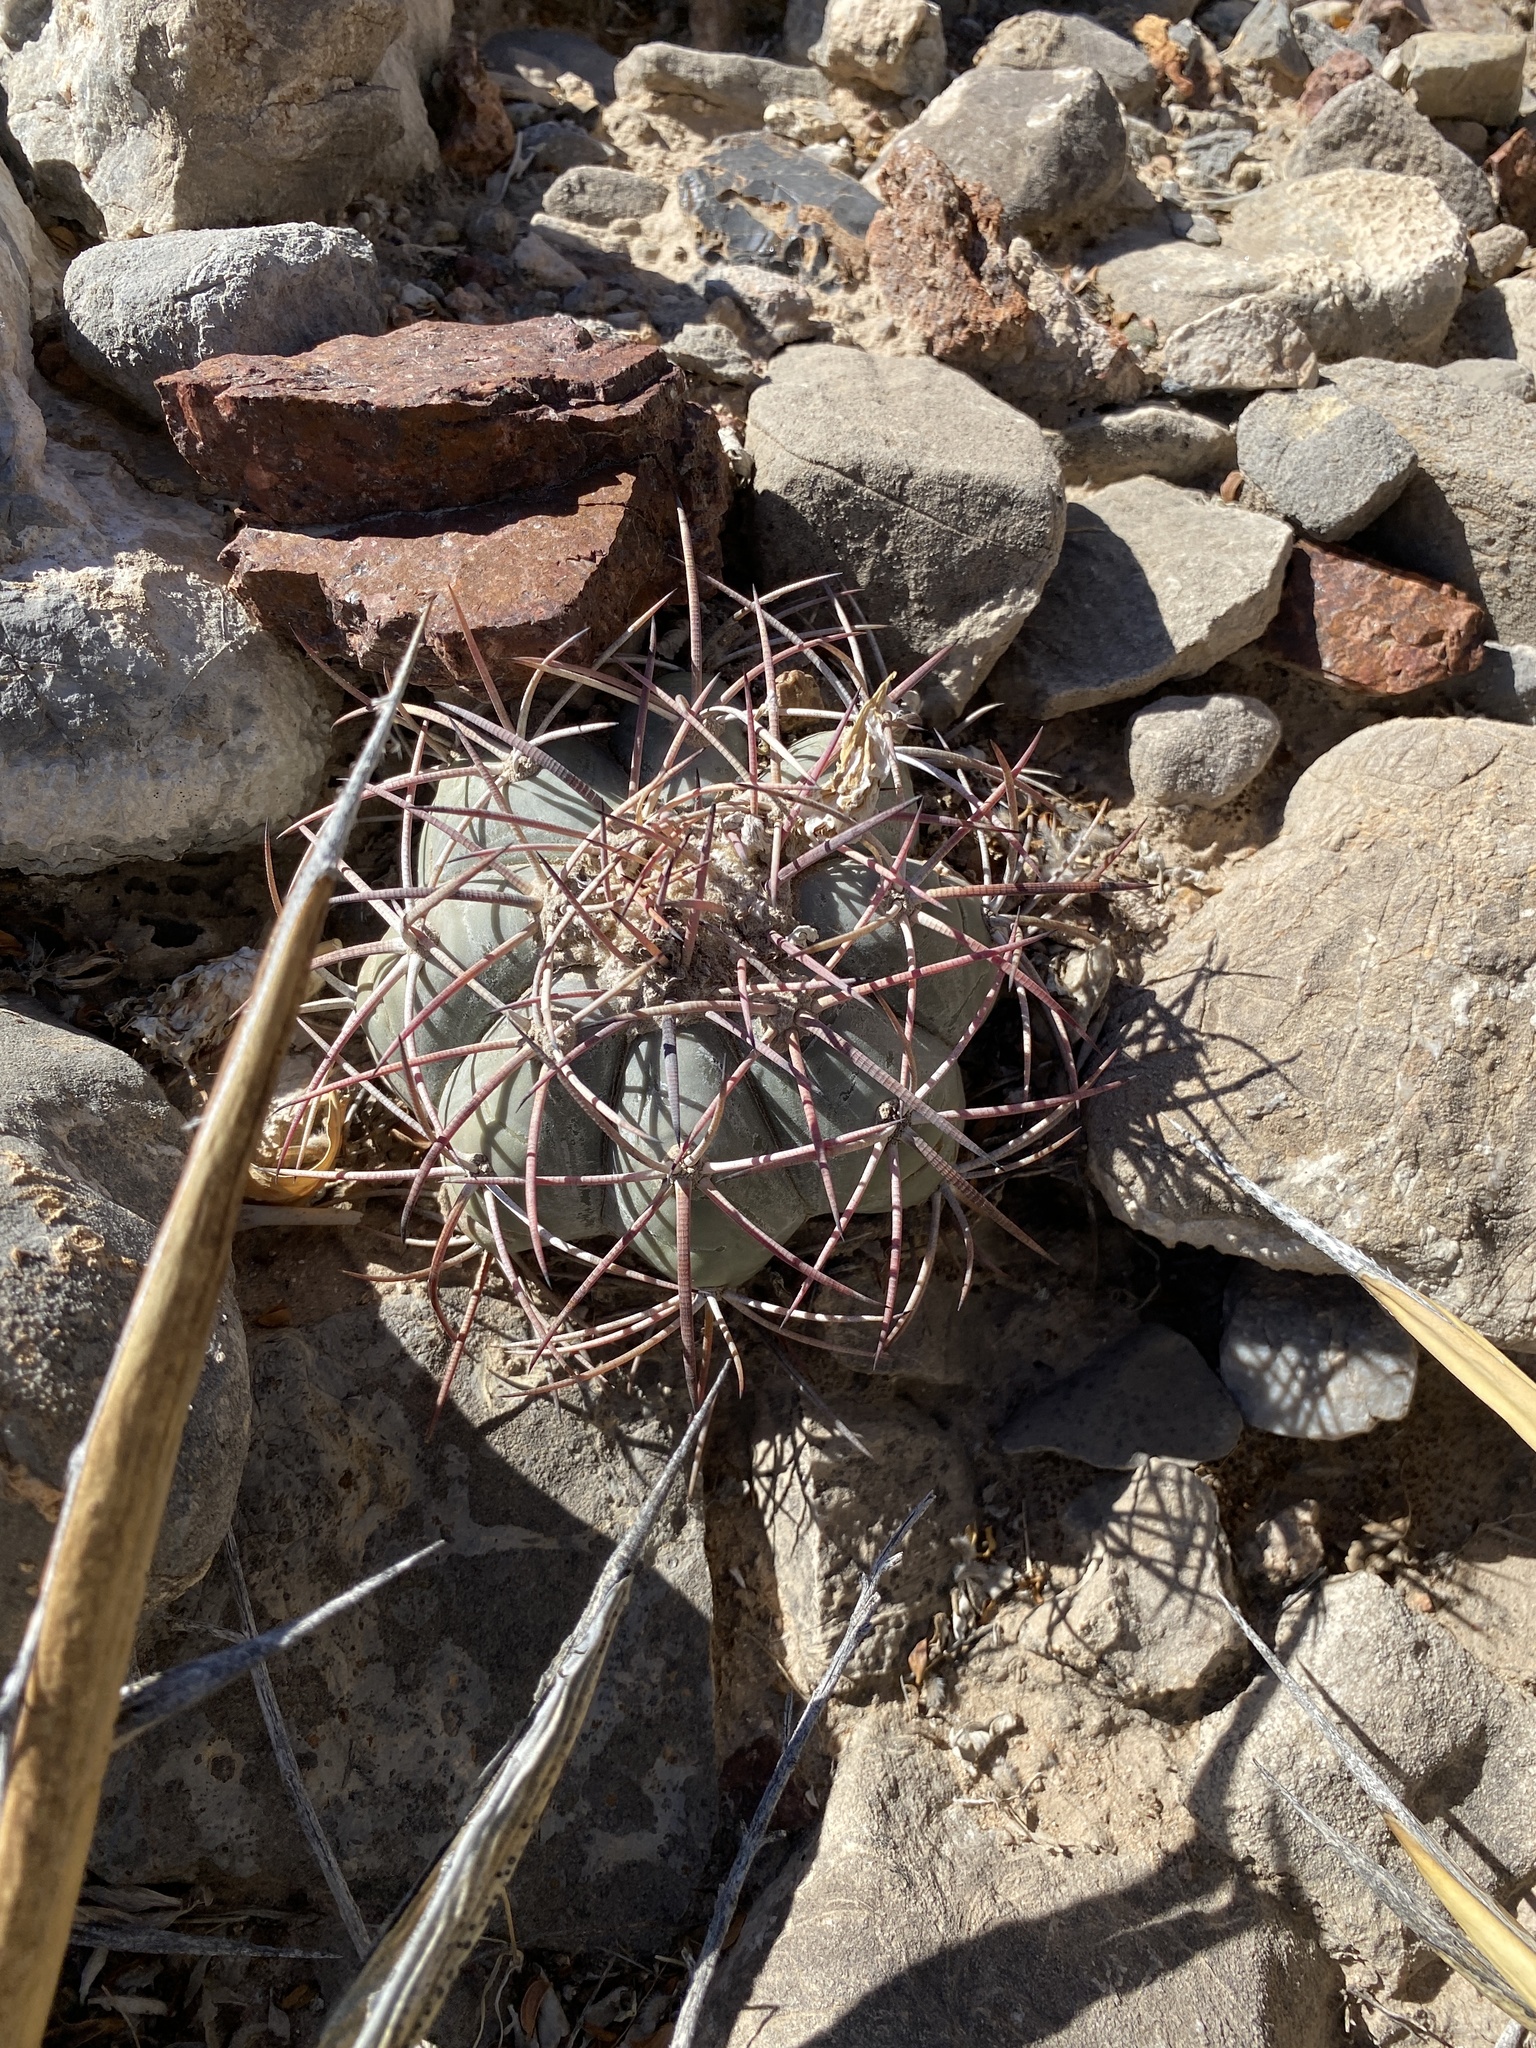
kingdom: Plantae
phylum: Tracheophyta
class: Magnoliopsida
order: Caryophyllales
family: Cactaceae
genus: Echinocactus
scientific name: Echinocactus horizonthalonius
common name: Devilshead
